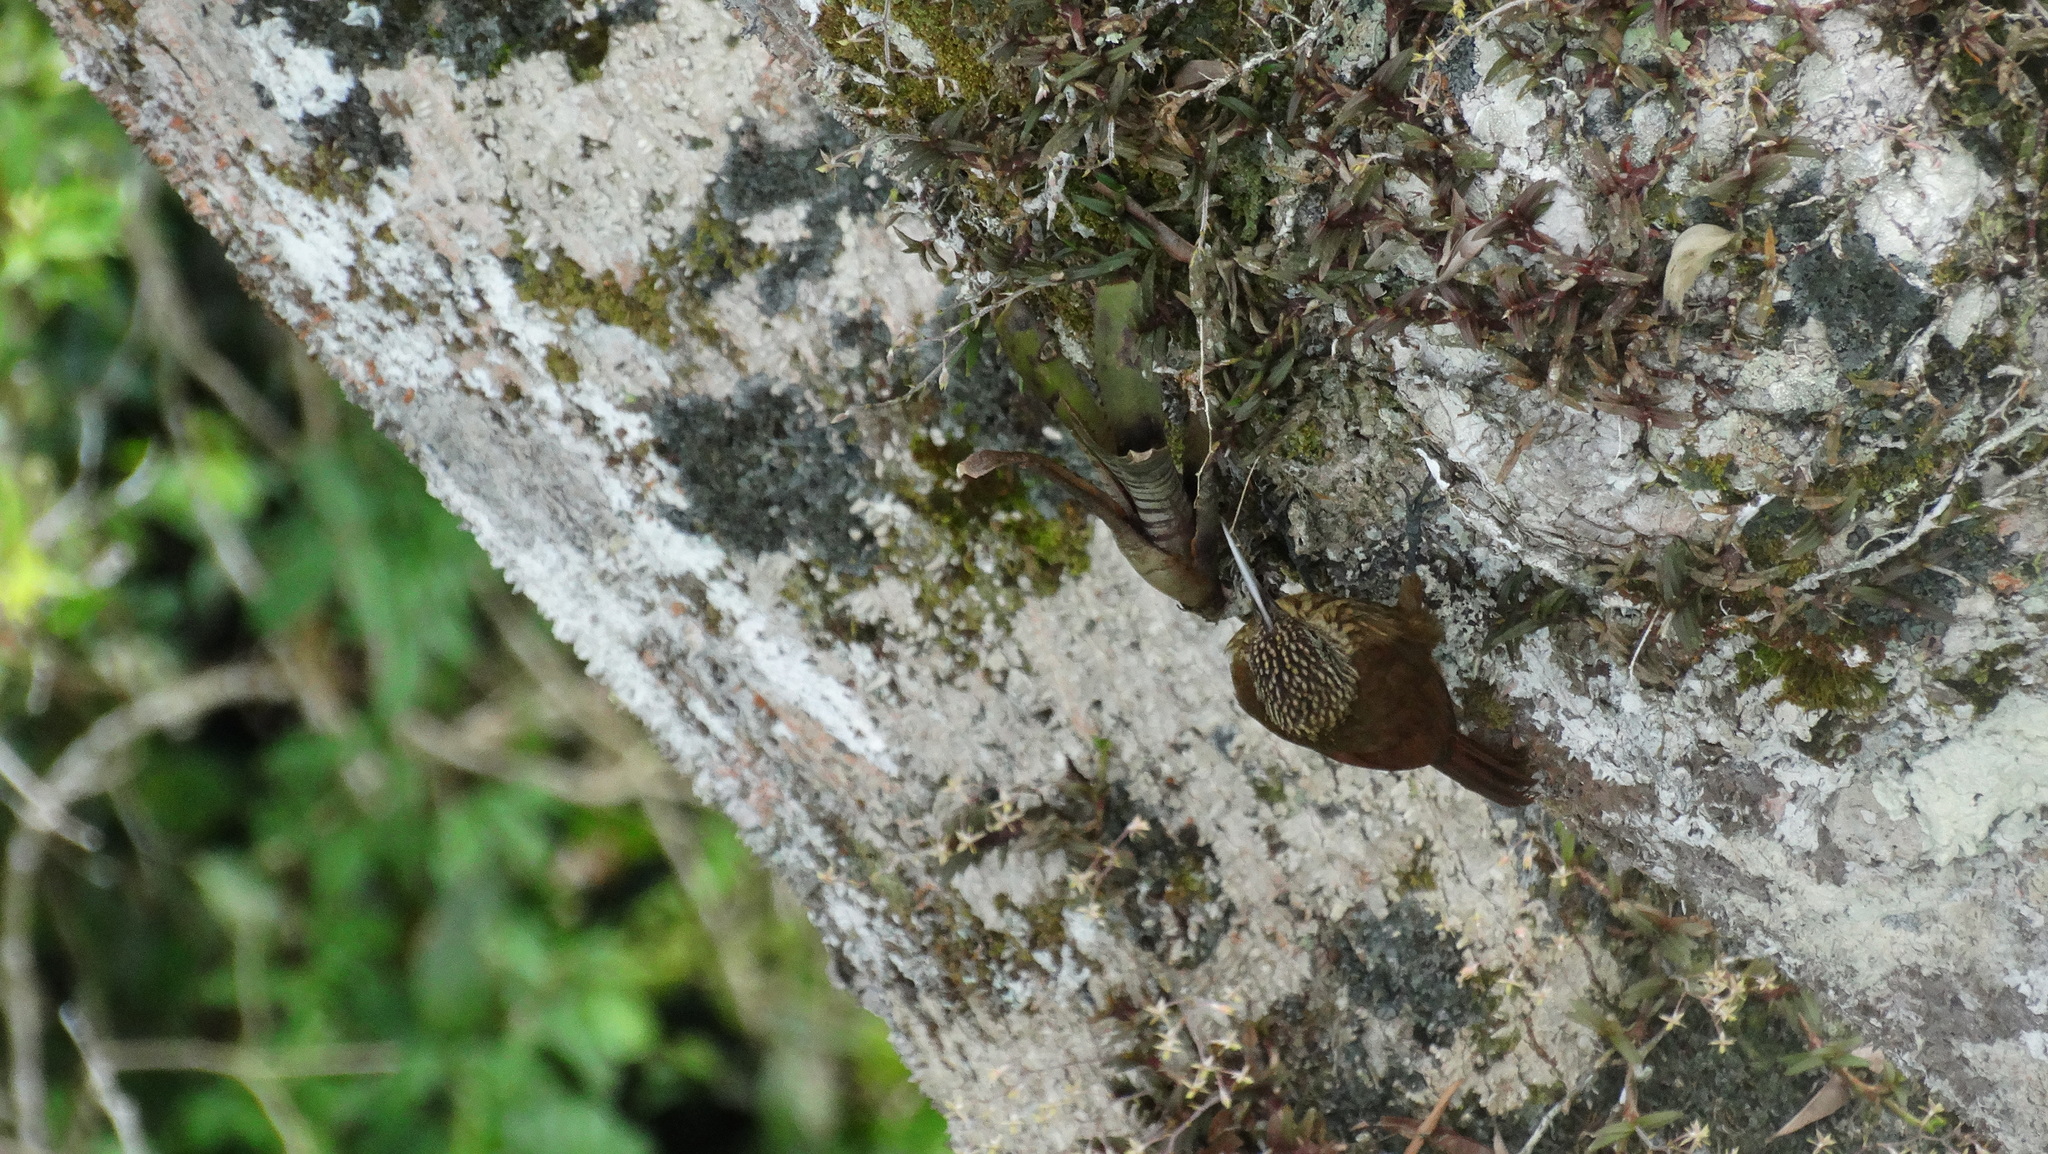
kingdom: Animalia
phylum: Chordata
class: Aves
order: Passeriformes
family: Furnariidae
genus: Xiphorhynchus
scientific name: Xiphorhynchus guttatus
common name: Buff-throated woodcreeper
